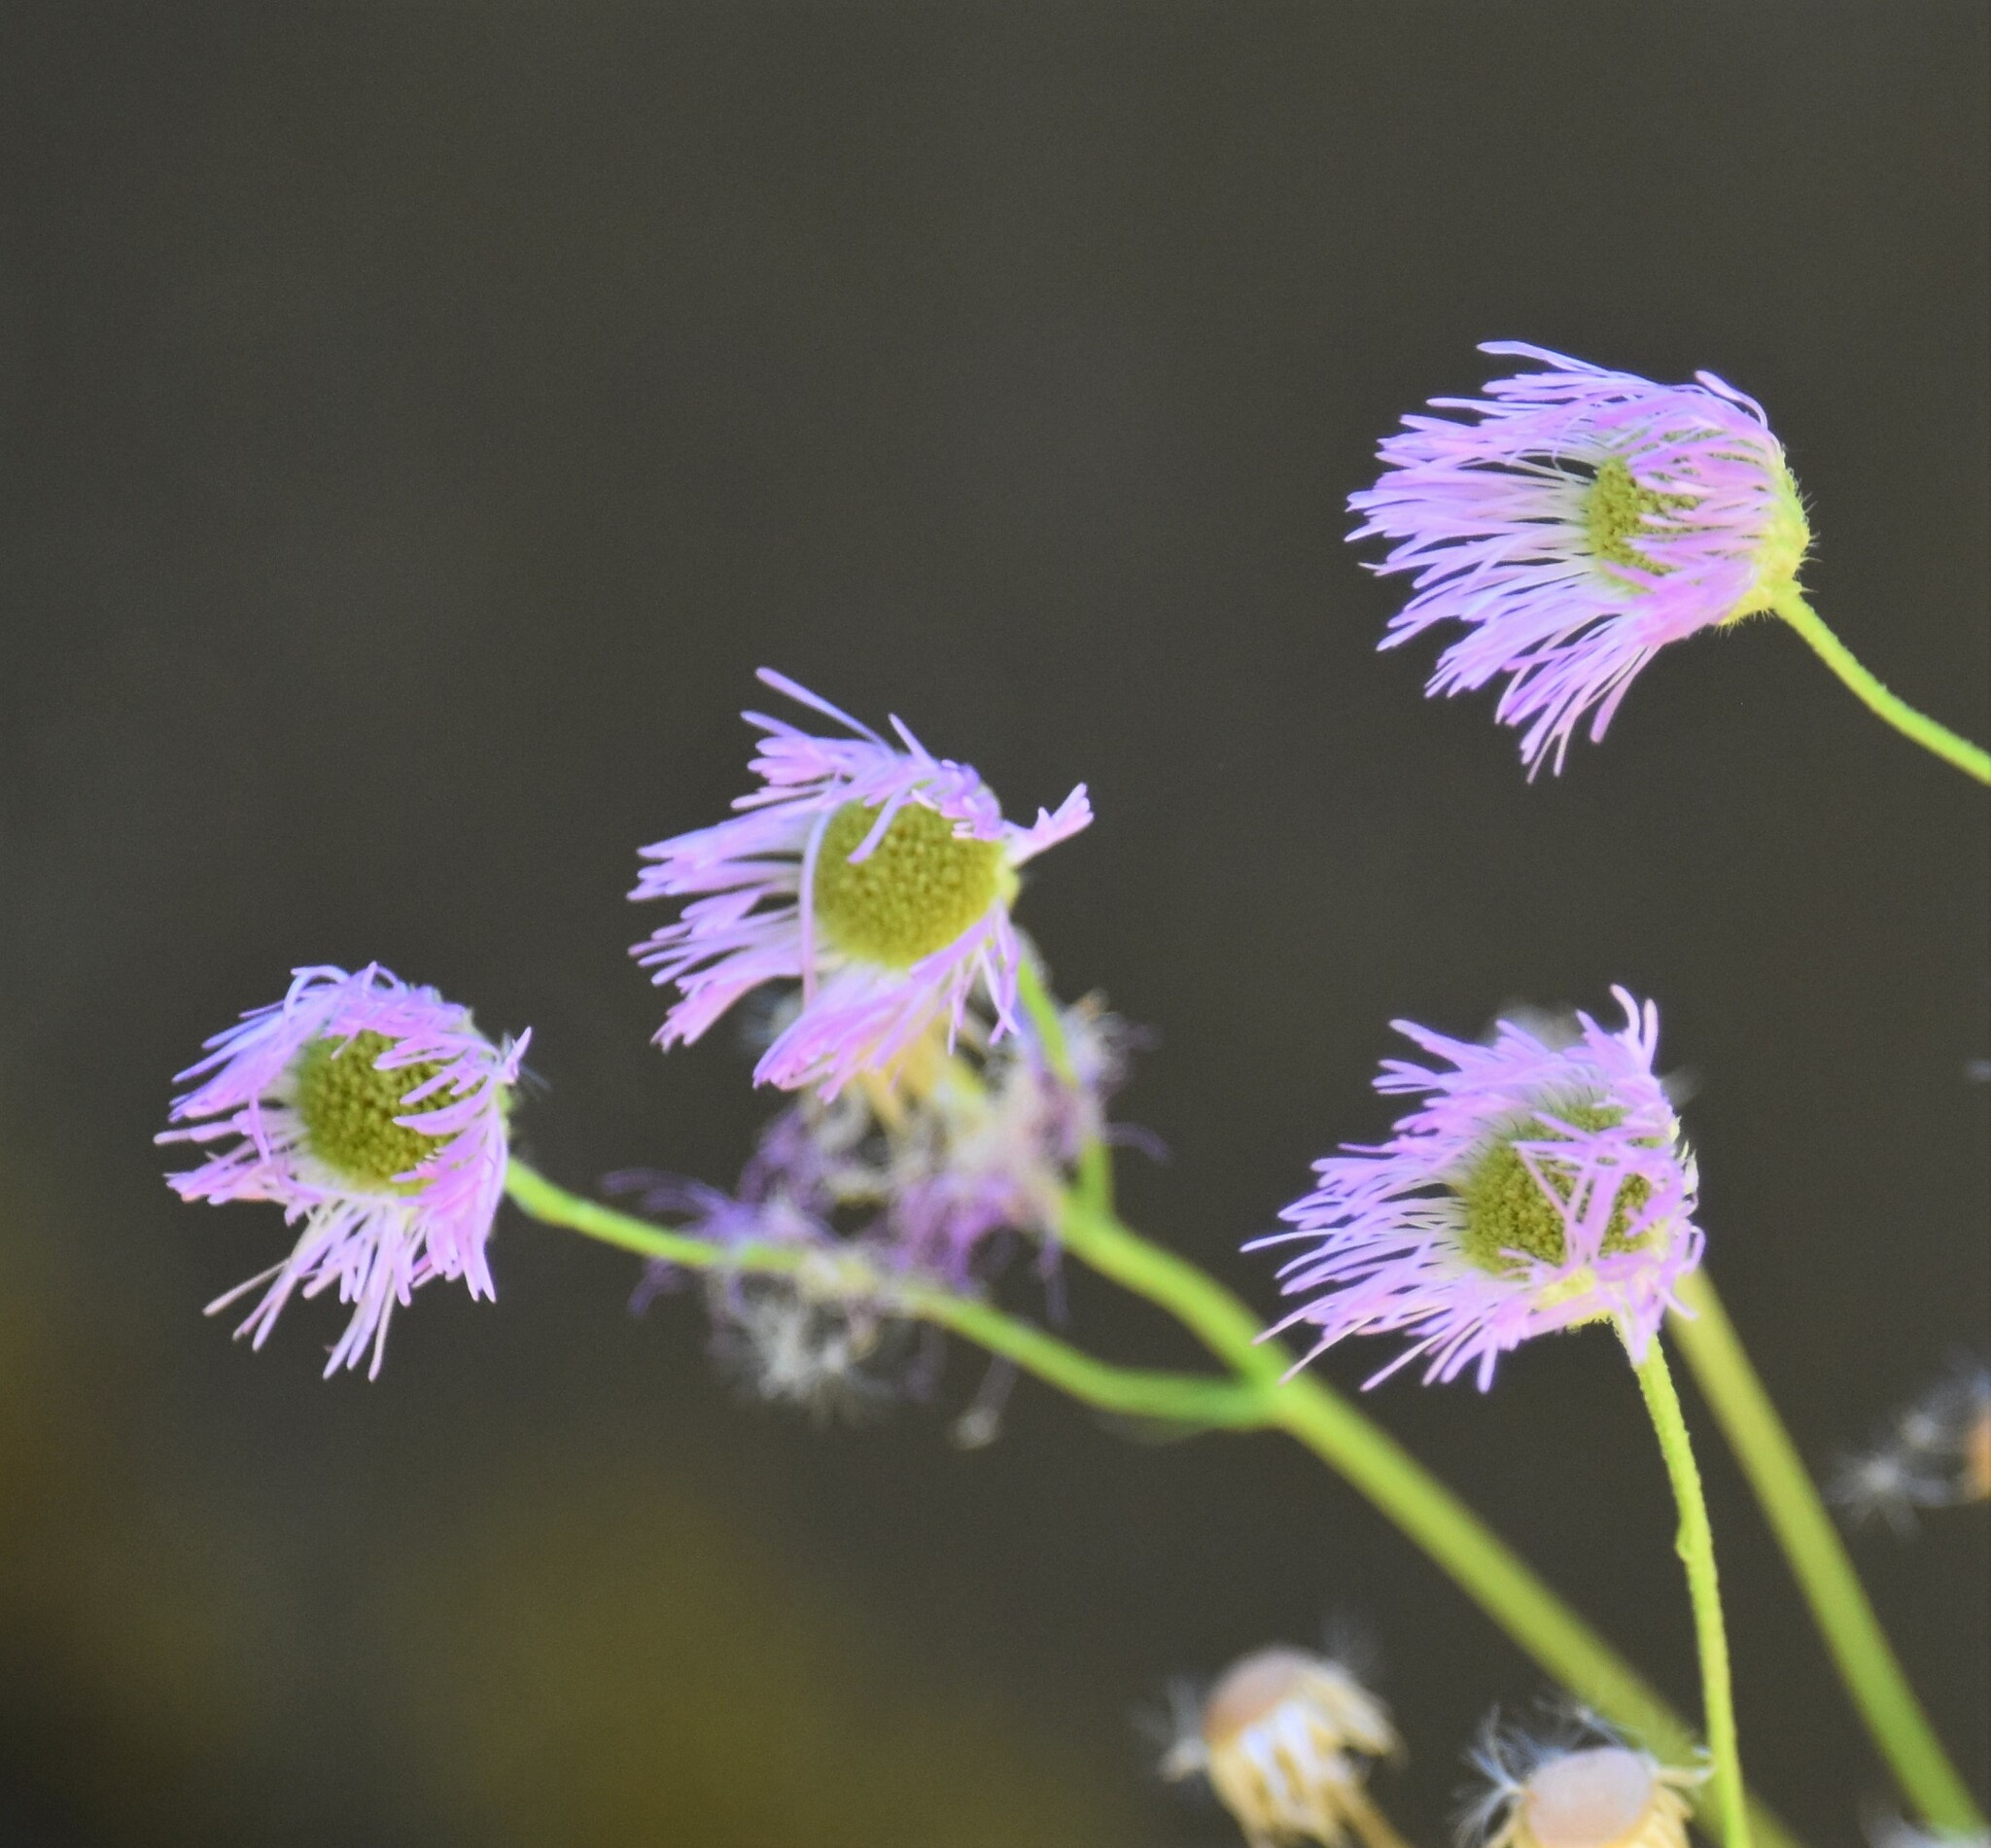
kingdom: Plantae
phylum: Tracheophyta
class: Magnoliopsida
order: Asterales
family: Asteraceae
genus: Erigeron
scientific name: Erigeron philadelphicus
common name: Robin's-plantain
